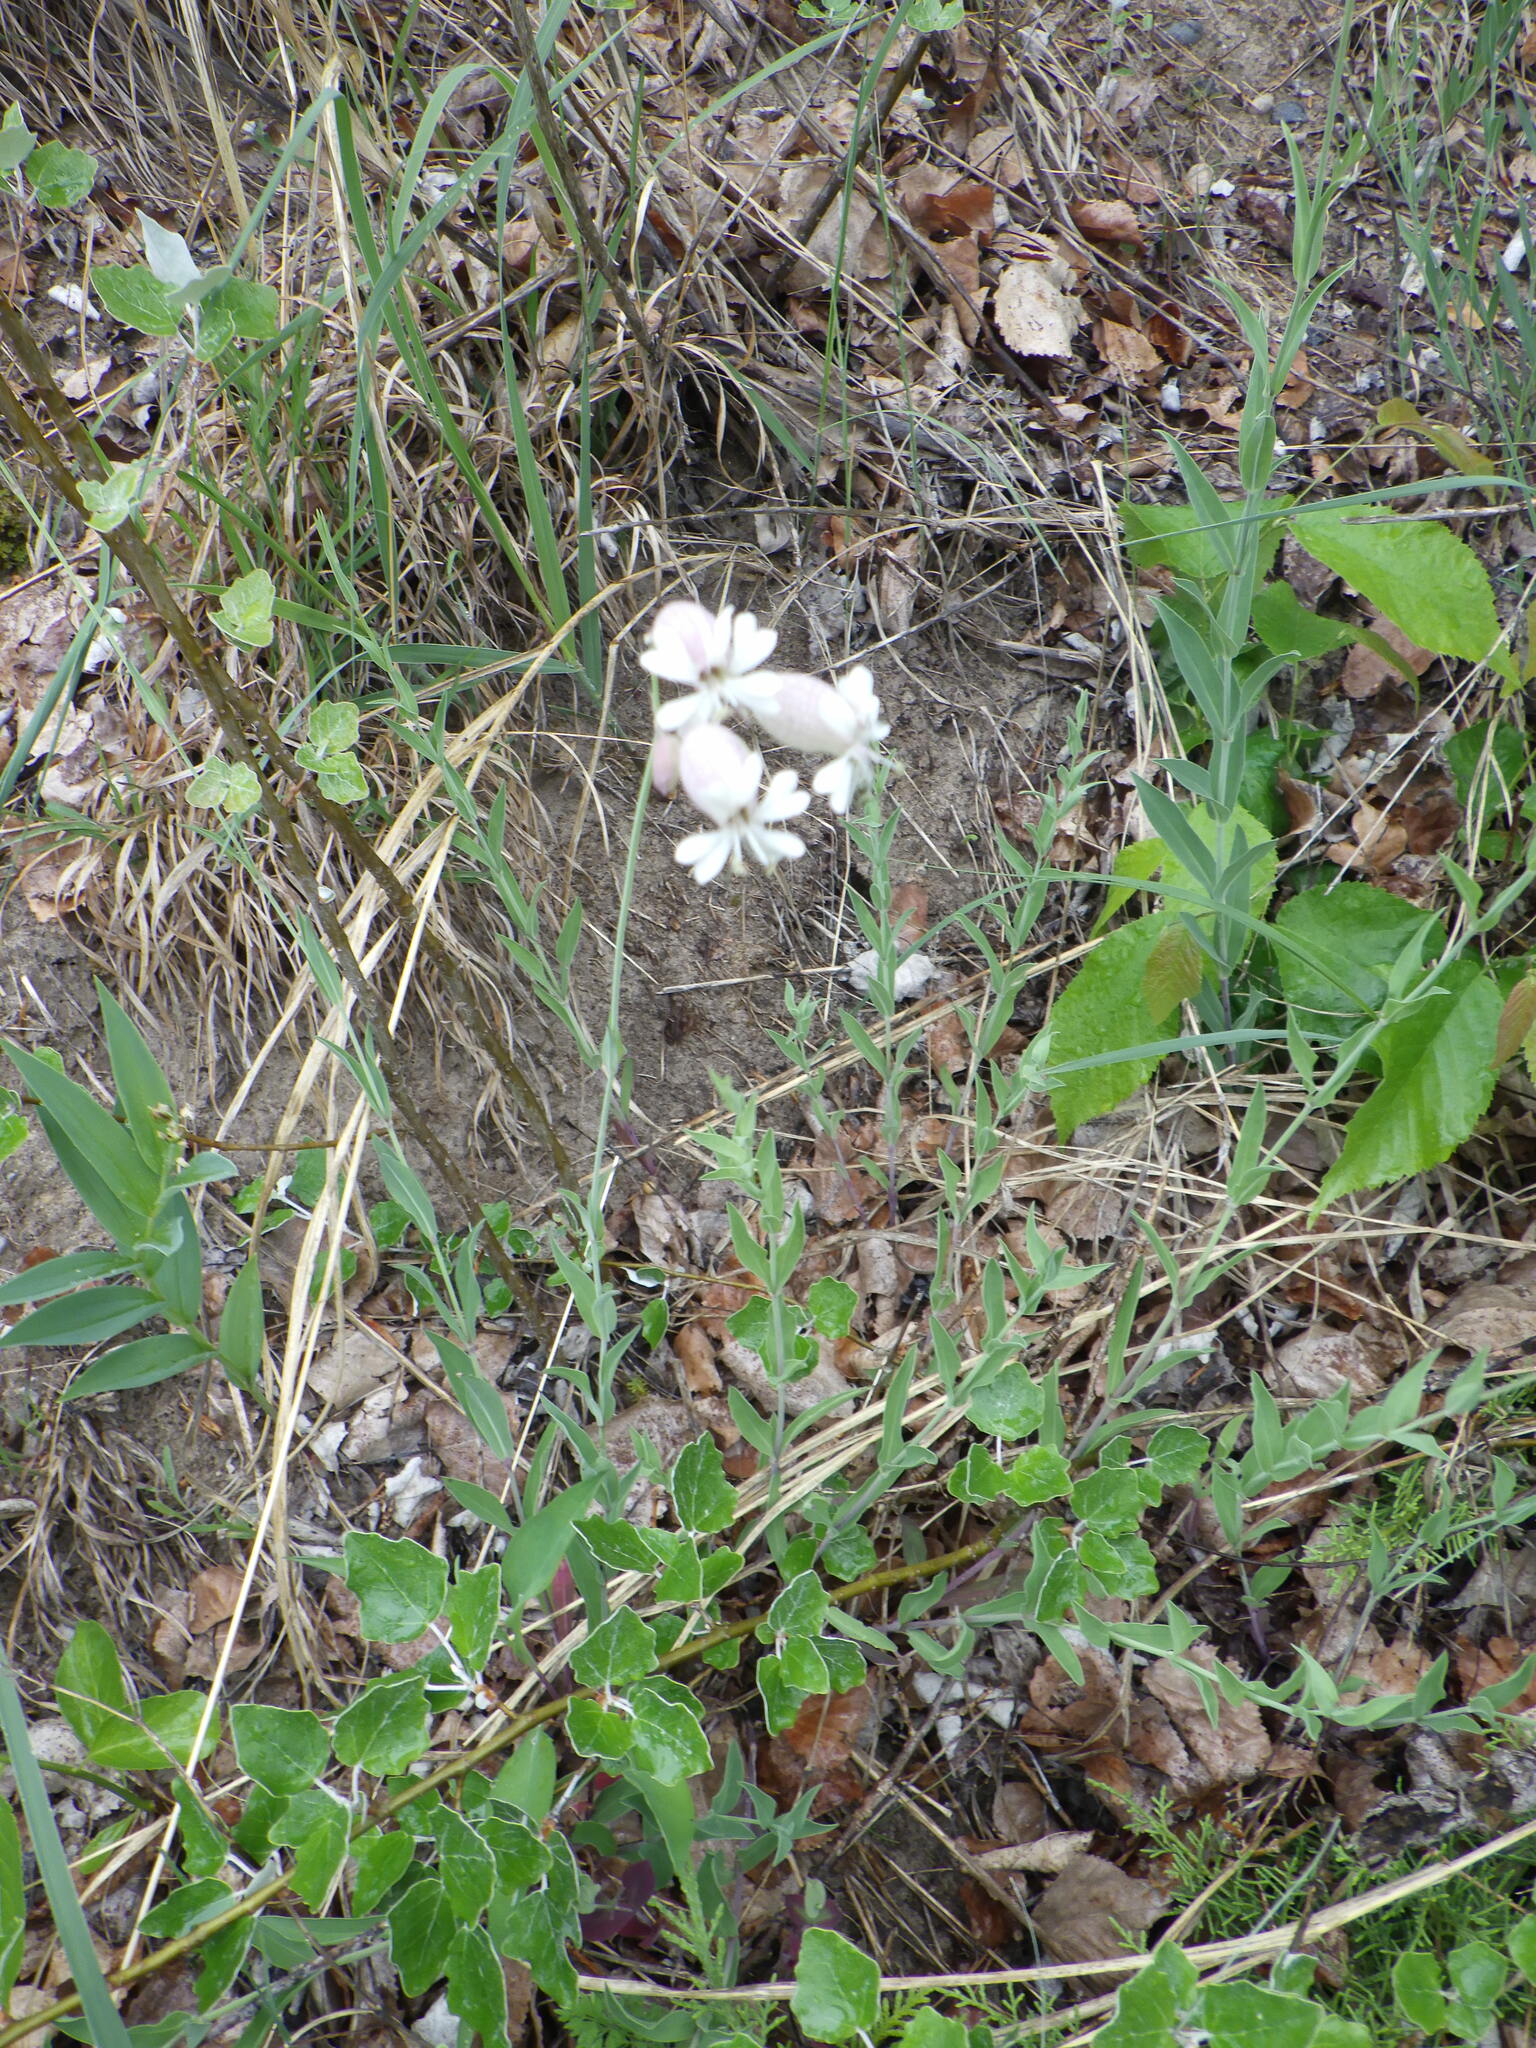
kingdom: Plantae
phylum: Tracheophyta
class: Magnoliopsida
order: Caryophyllales
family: Caryophyllaceae
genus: Silene
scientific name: Silene vulgaris
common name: Bladder campion
